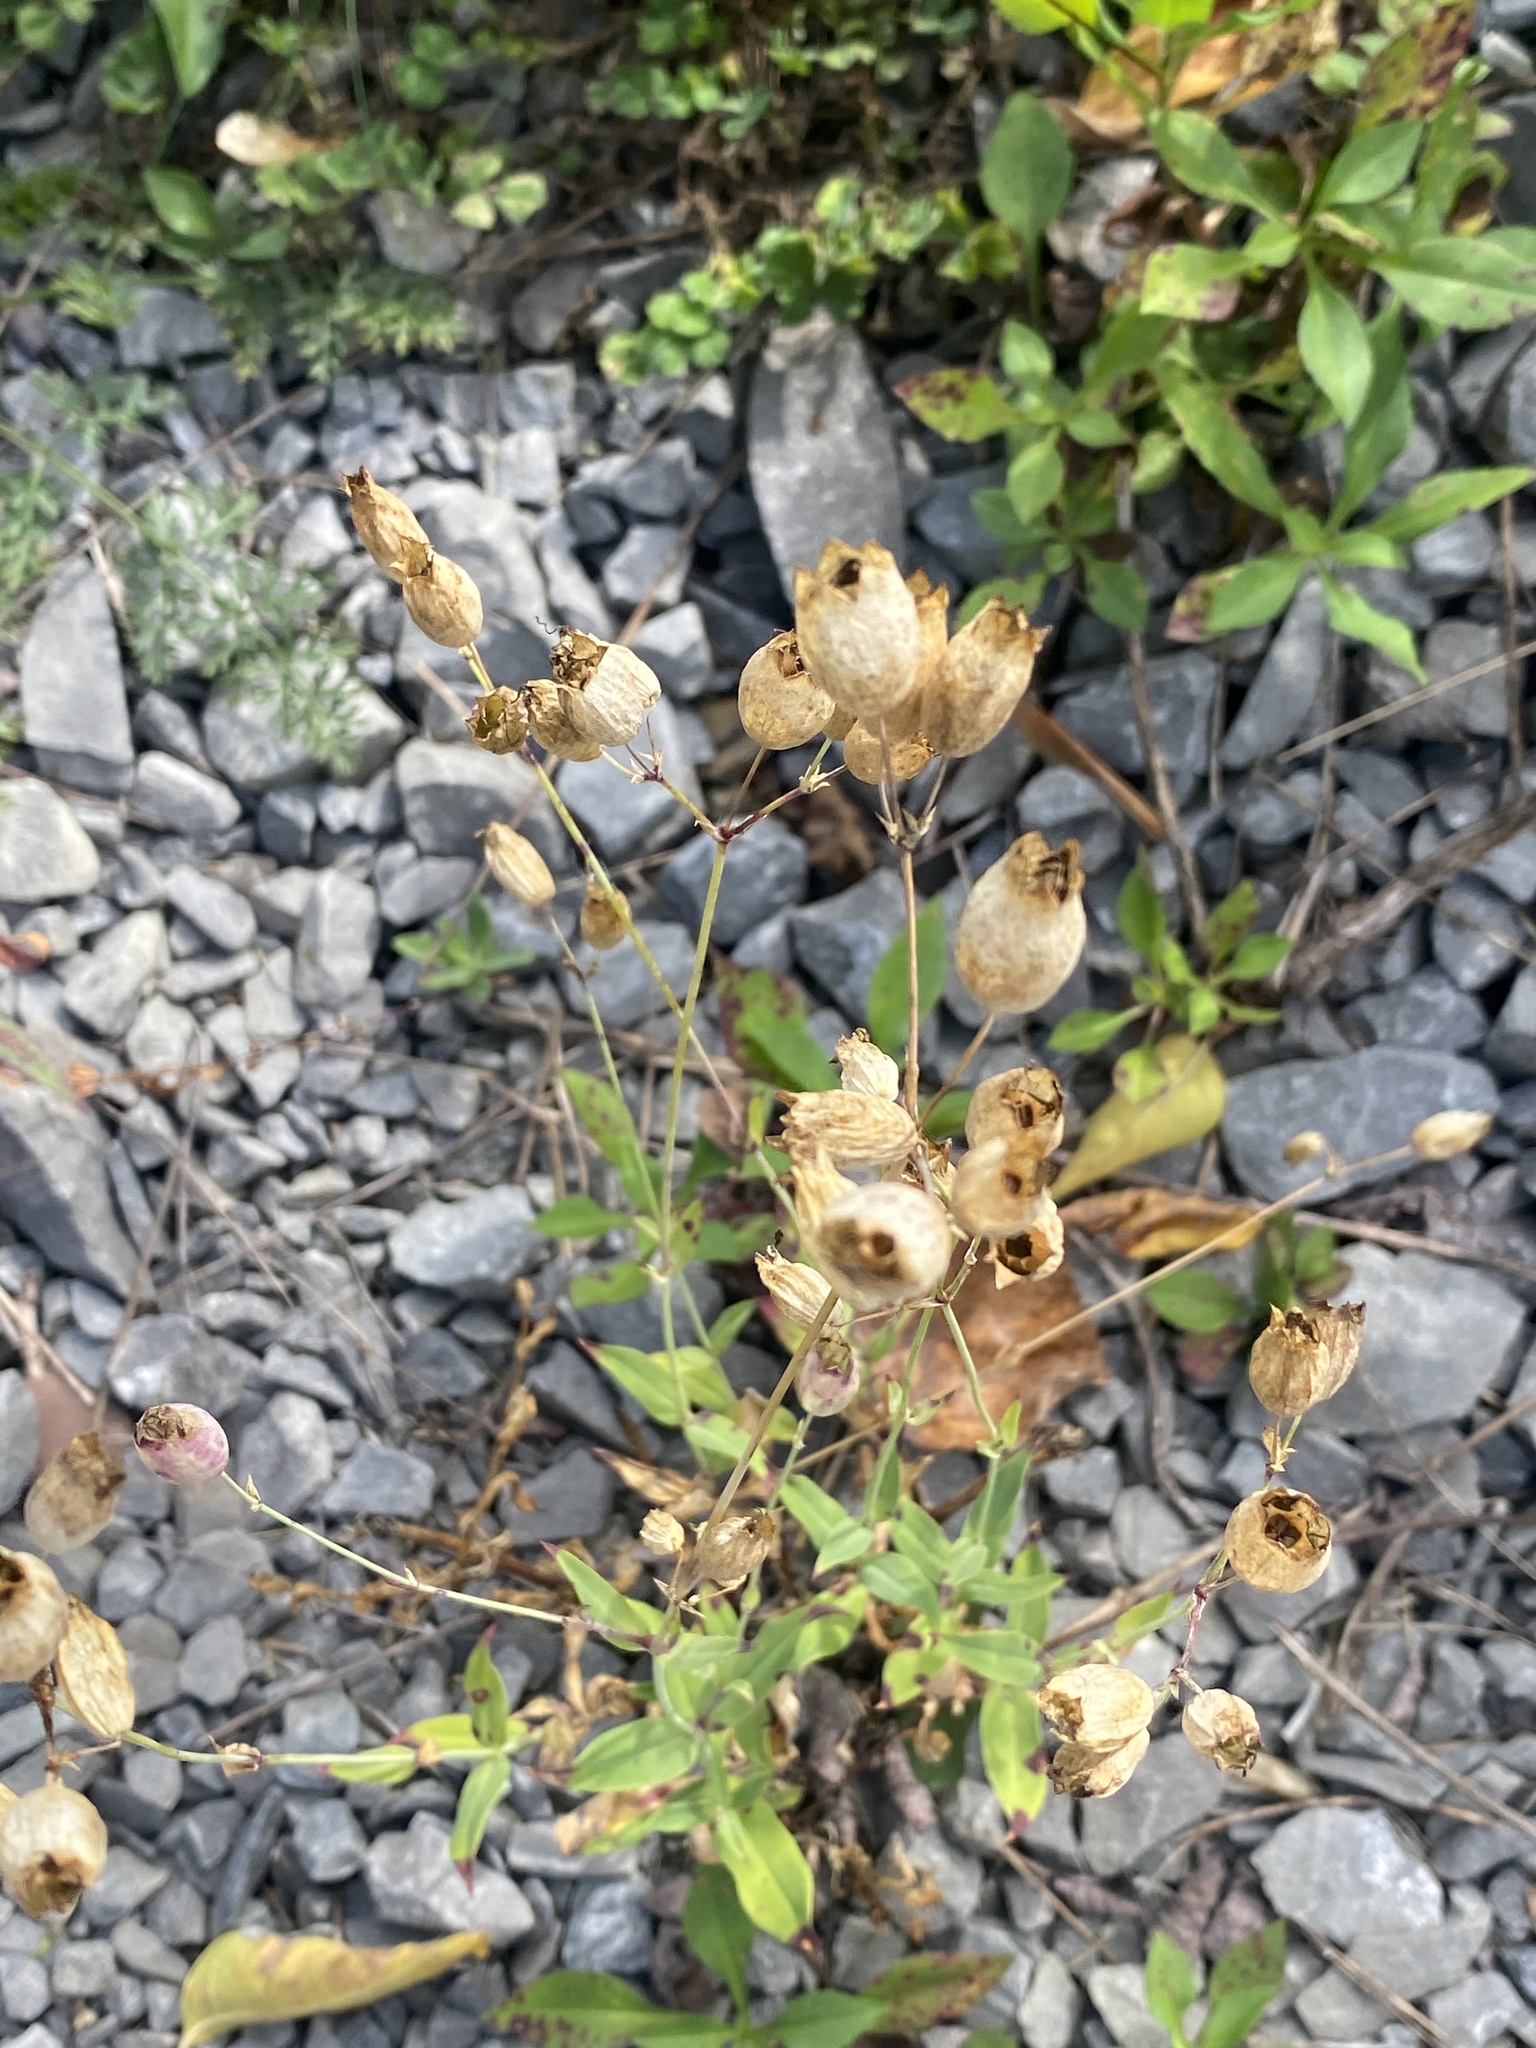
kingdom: Plantae
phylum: Tracheophyta
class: Magnoliopsida
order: Caryophyllales
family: Caryophyllaceae
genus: Silene
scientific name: Silene vulgaris
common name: Bladder campion
